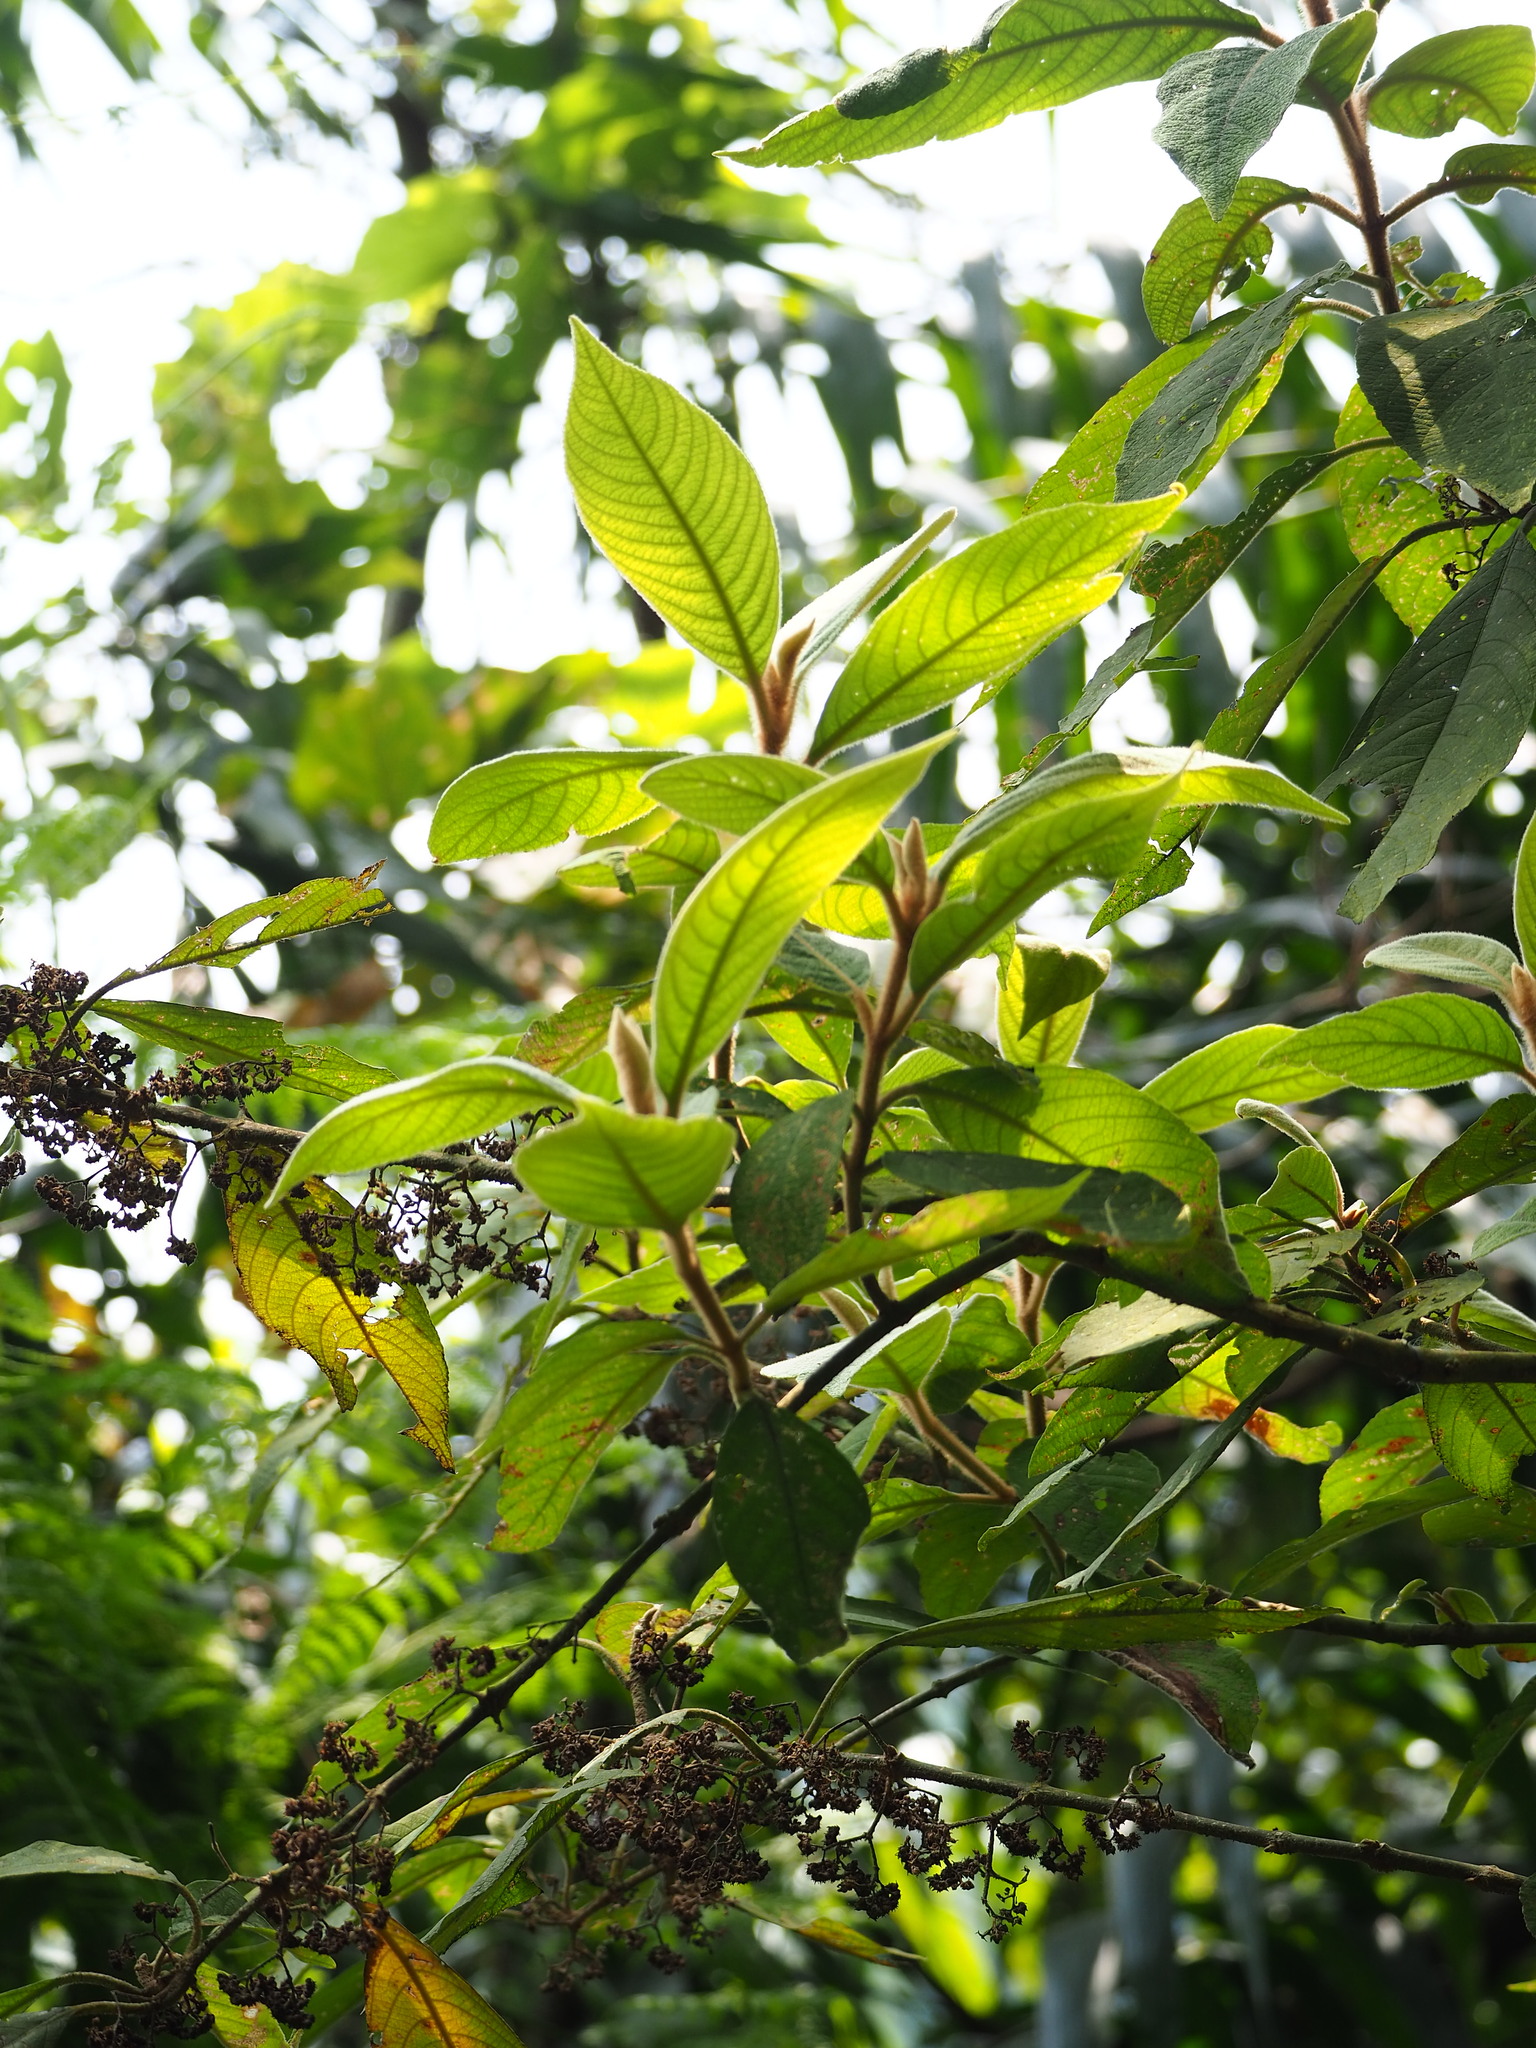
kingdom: Plantae
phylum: Tracheophyta
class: Magnoliopsida
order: Lamiales
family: Lamiaceae
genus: Callicarpa
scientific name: Callicarpa kochiana
